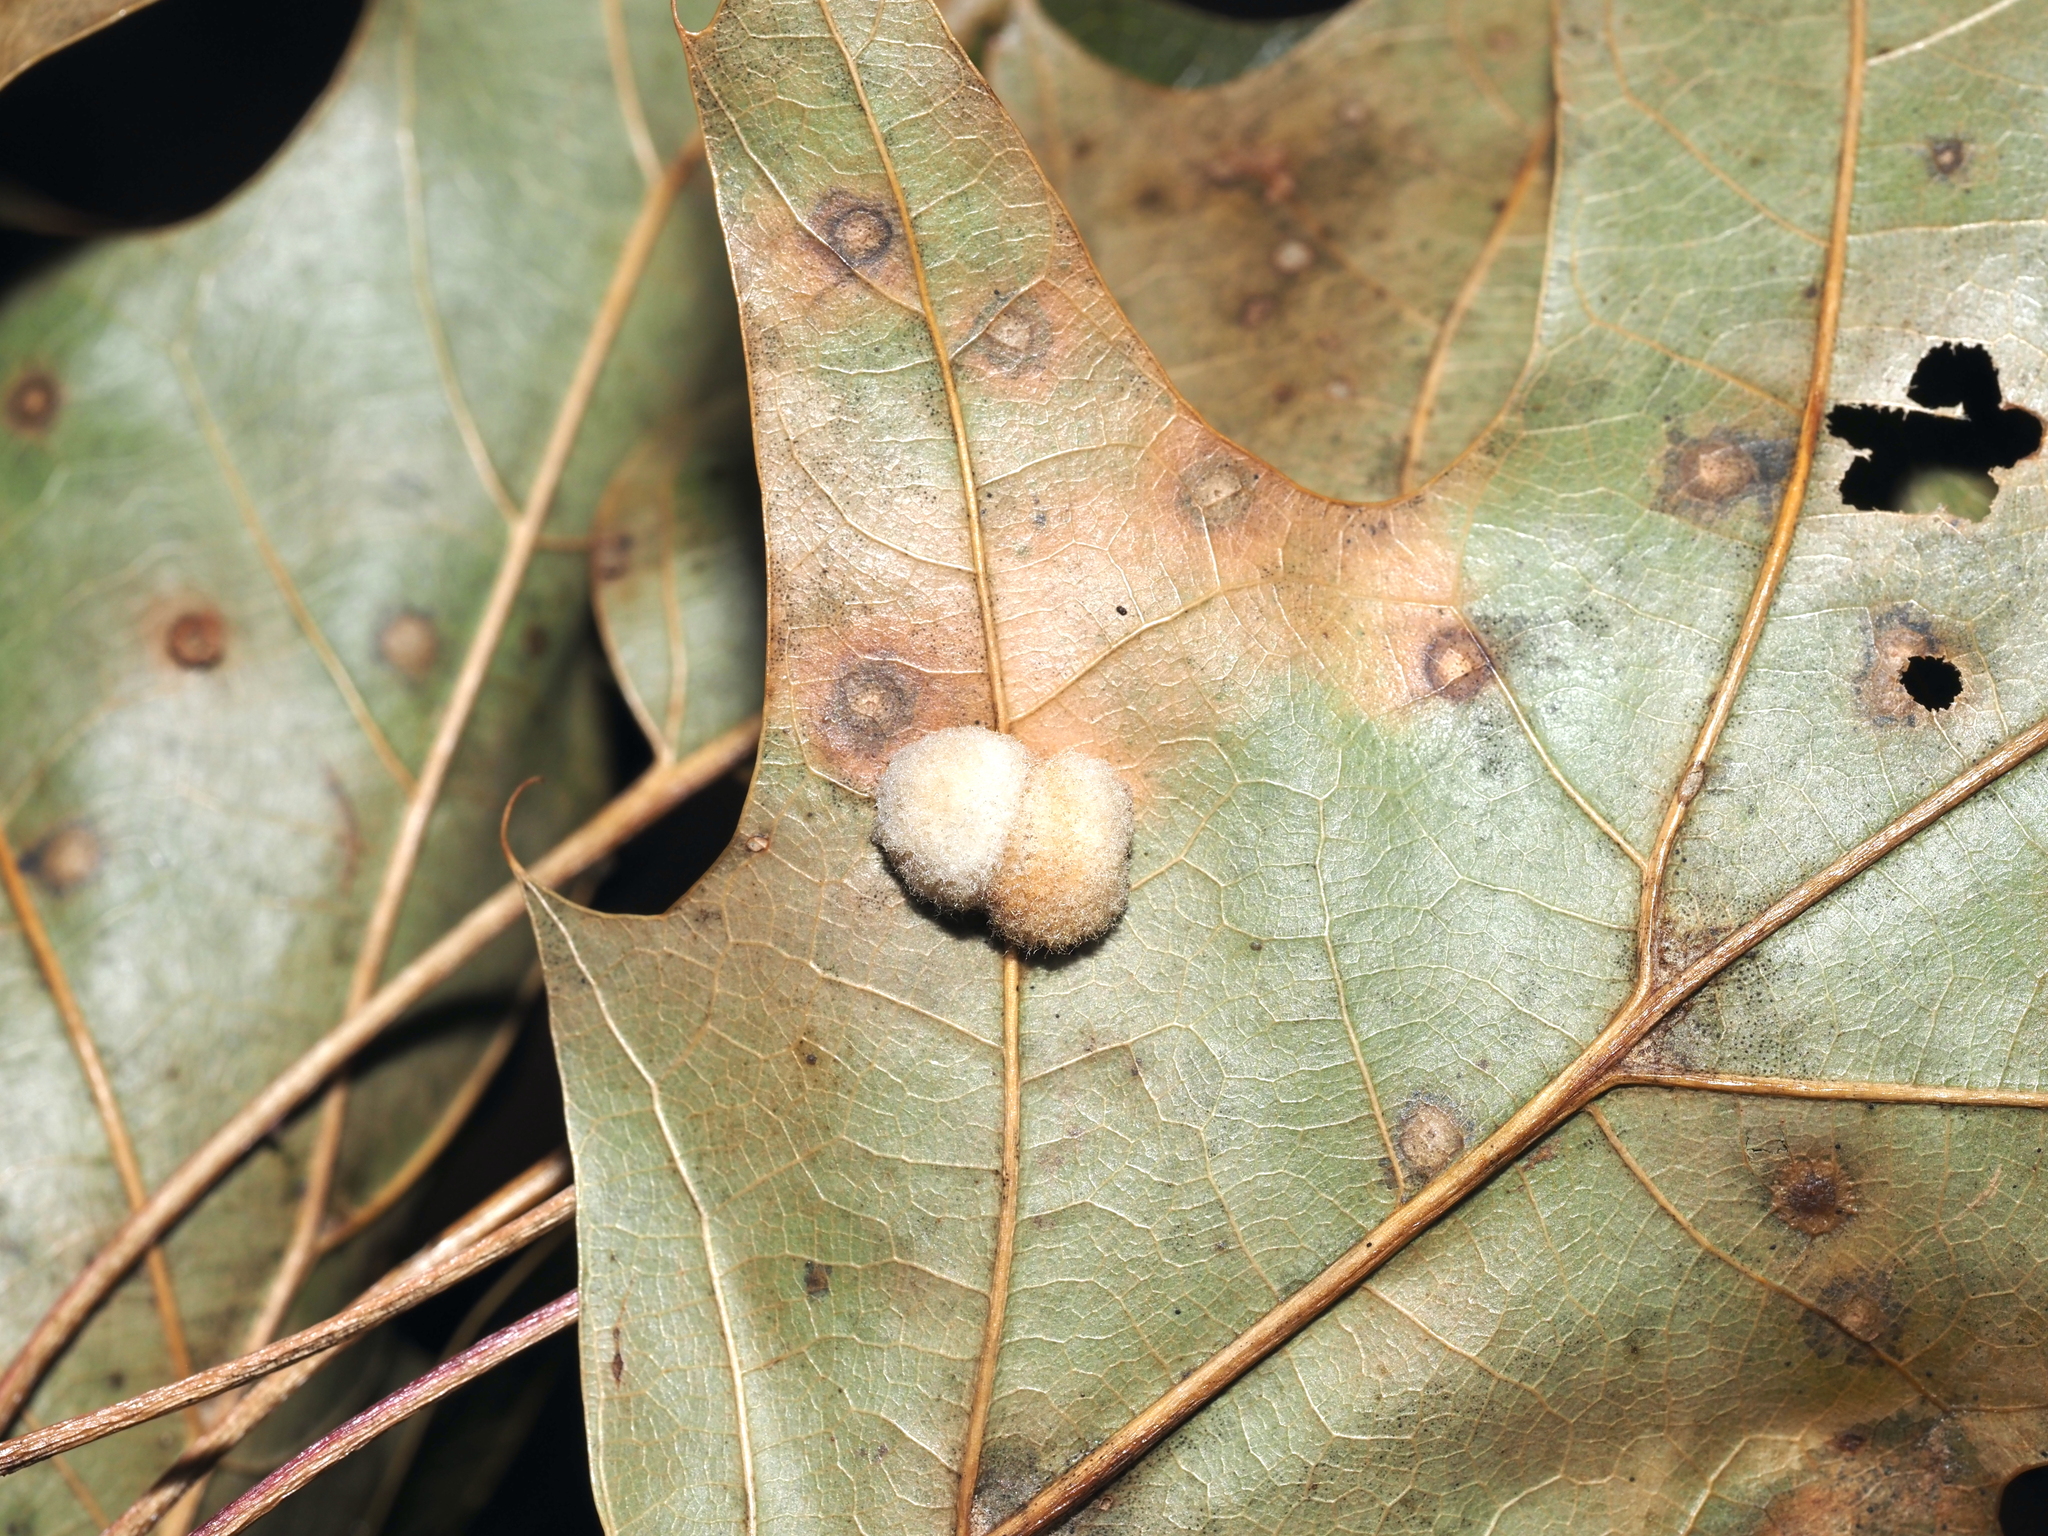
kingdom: Animalia
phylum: Arthropoda
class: Insecta
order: Hymenoptera
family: Cynipidae
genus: Callirhytis
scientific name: Callirhytis
